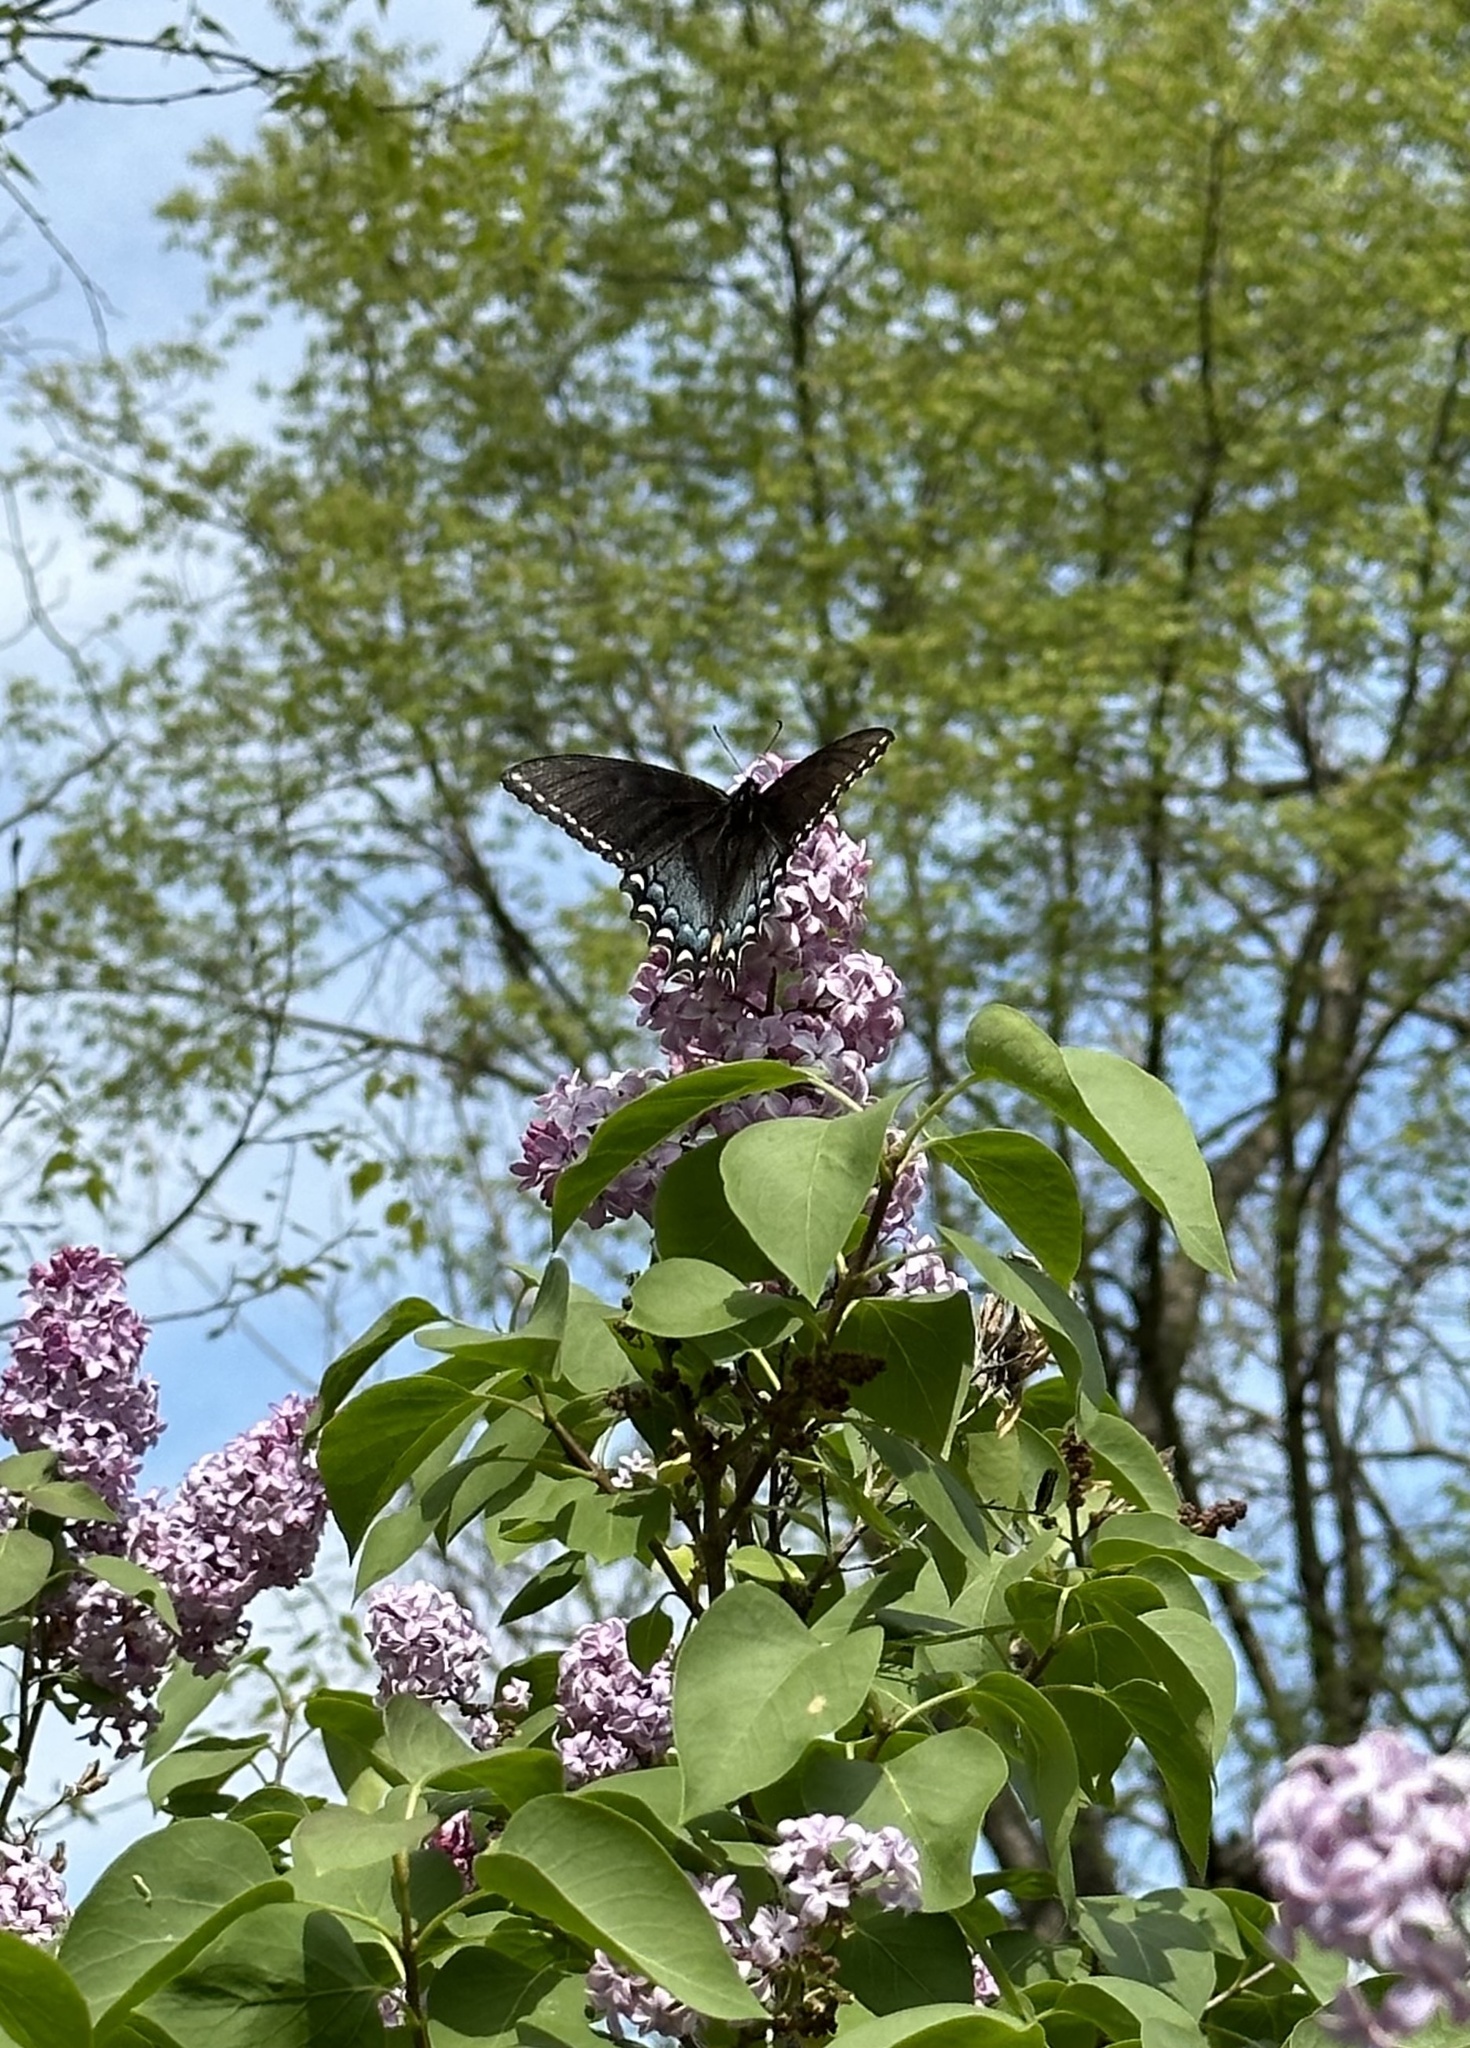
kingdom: Animalia
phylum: Arthropoda
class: Insecta
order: Lepidoptera
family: Papilionidae
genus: Papilio
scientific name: Papilio troilus
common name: Spicebush swallowtail
